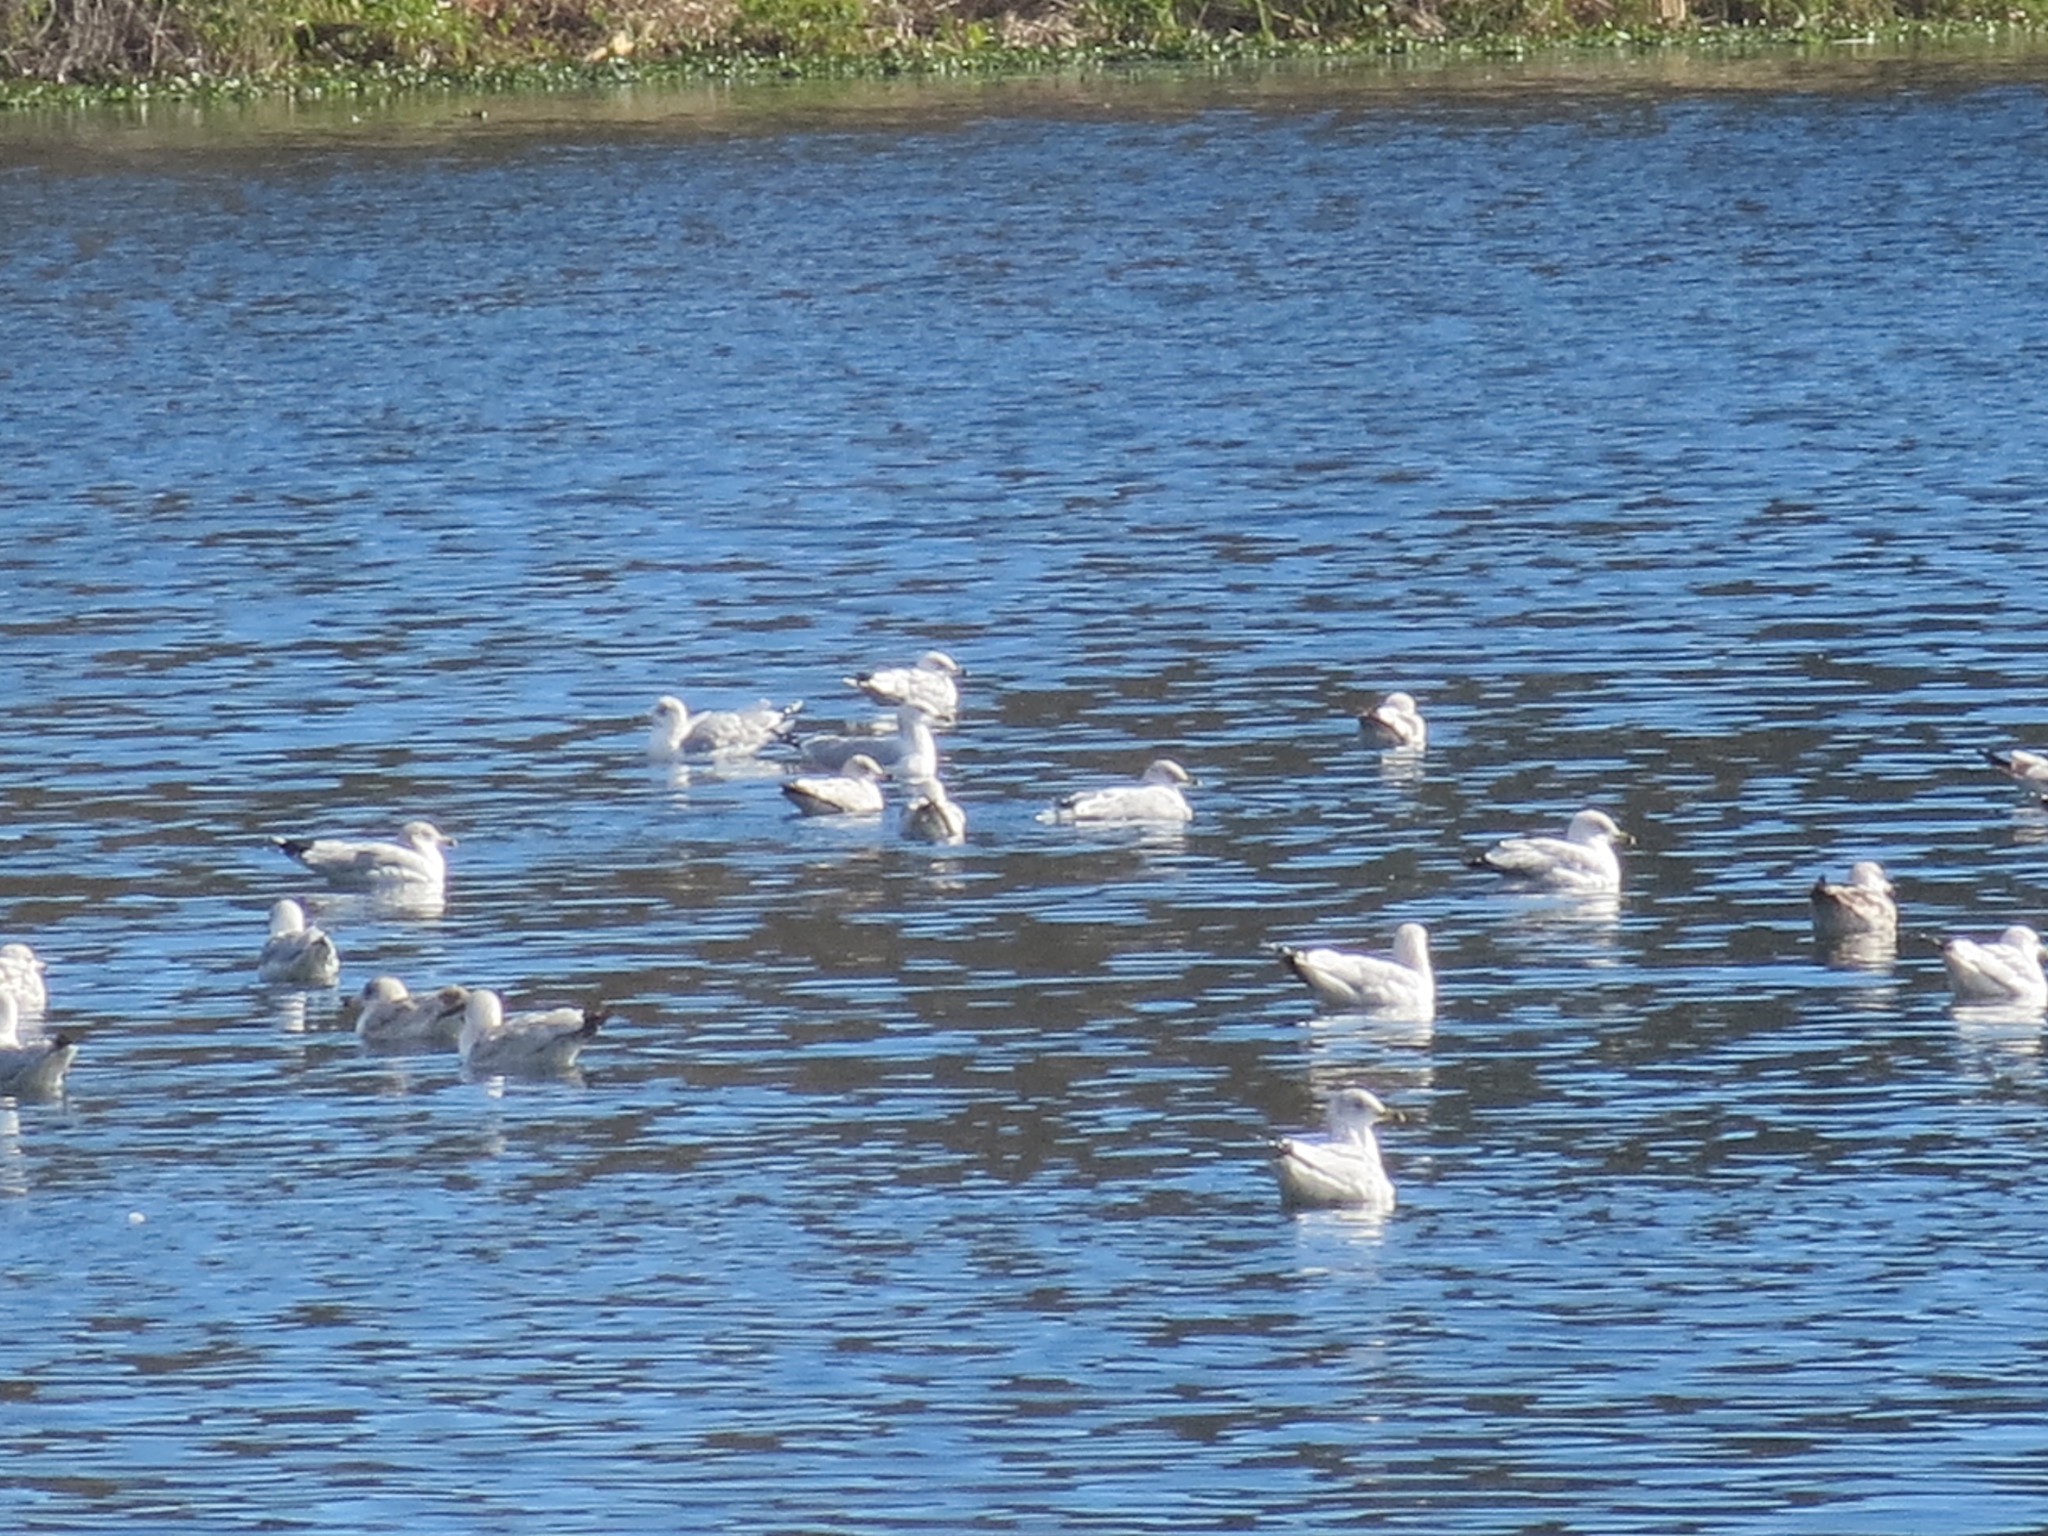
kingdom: Animalia
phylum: Chordata
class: Aves
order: Charadriiformes
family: Laridae
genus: Larus
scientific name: Larus delawarensis
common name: Ring-billed gull
